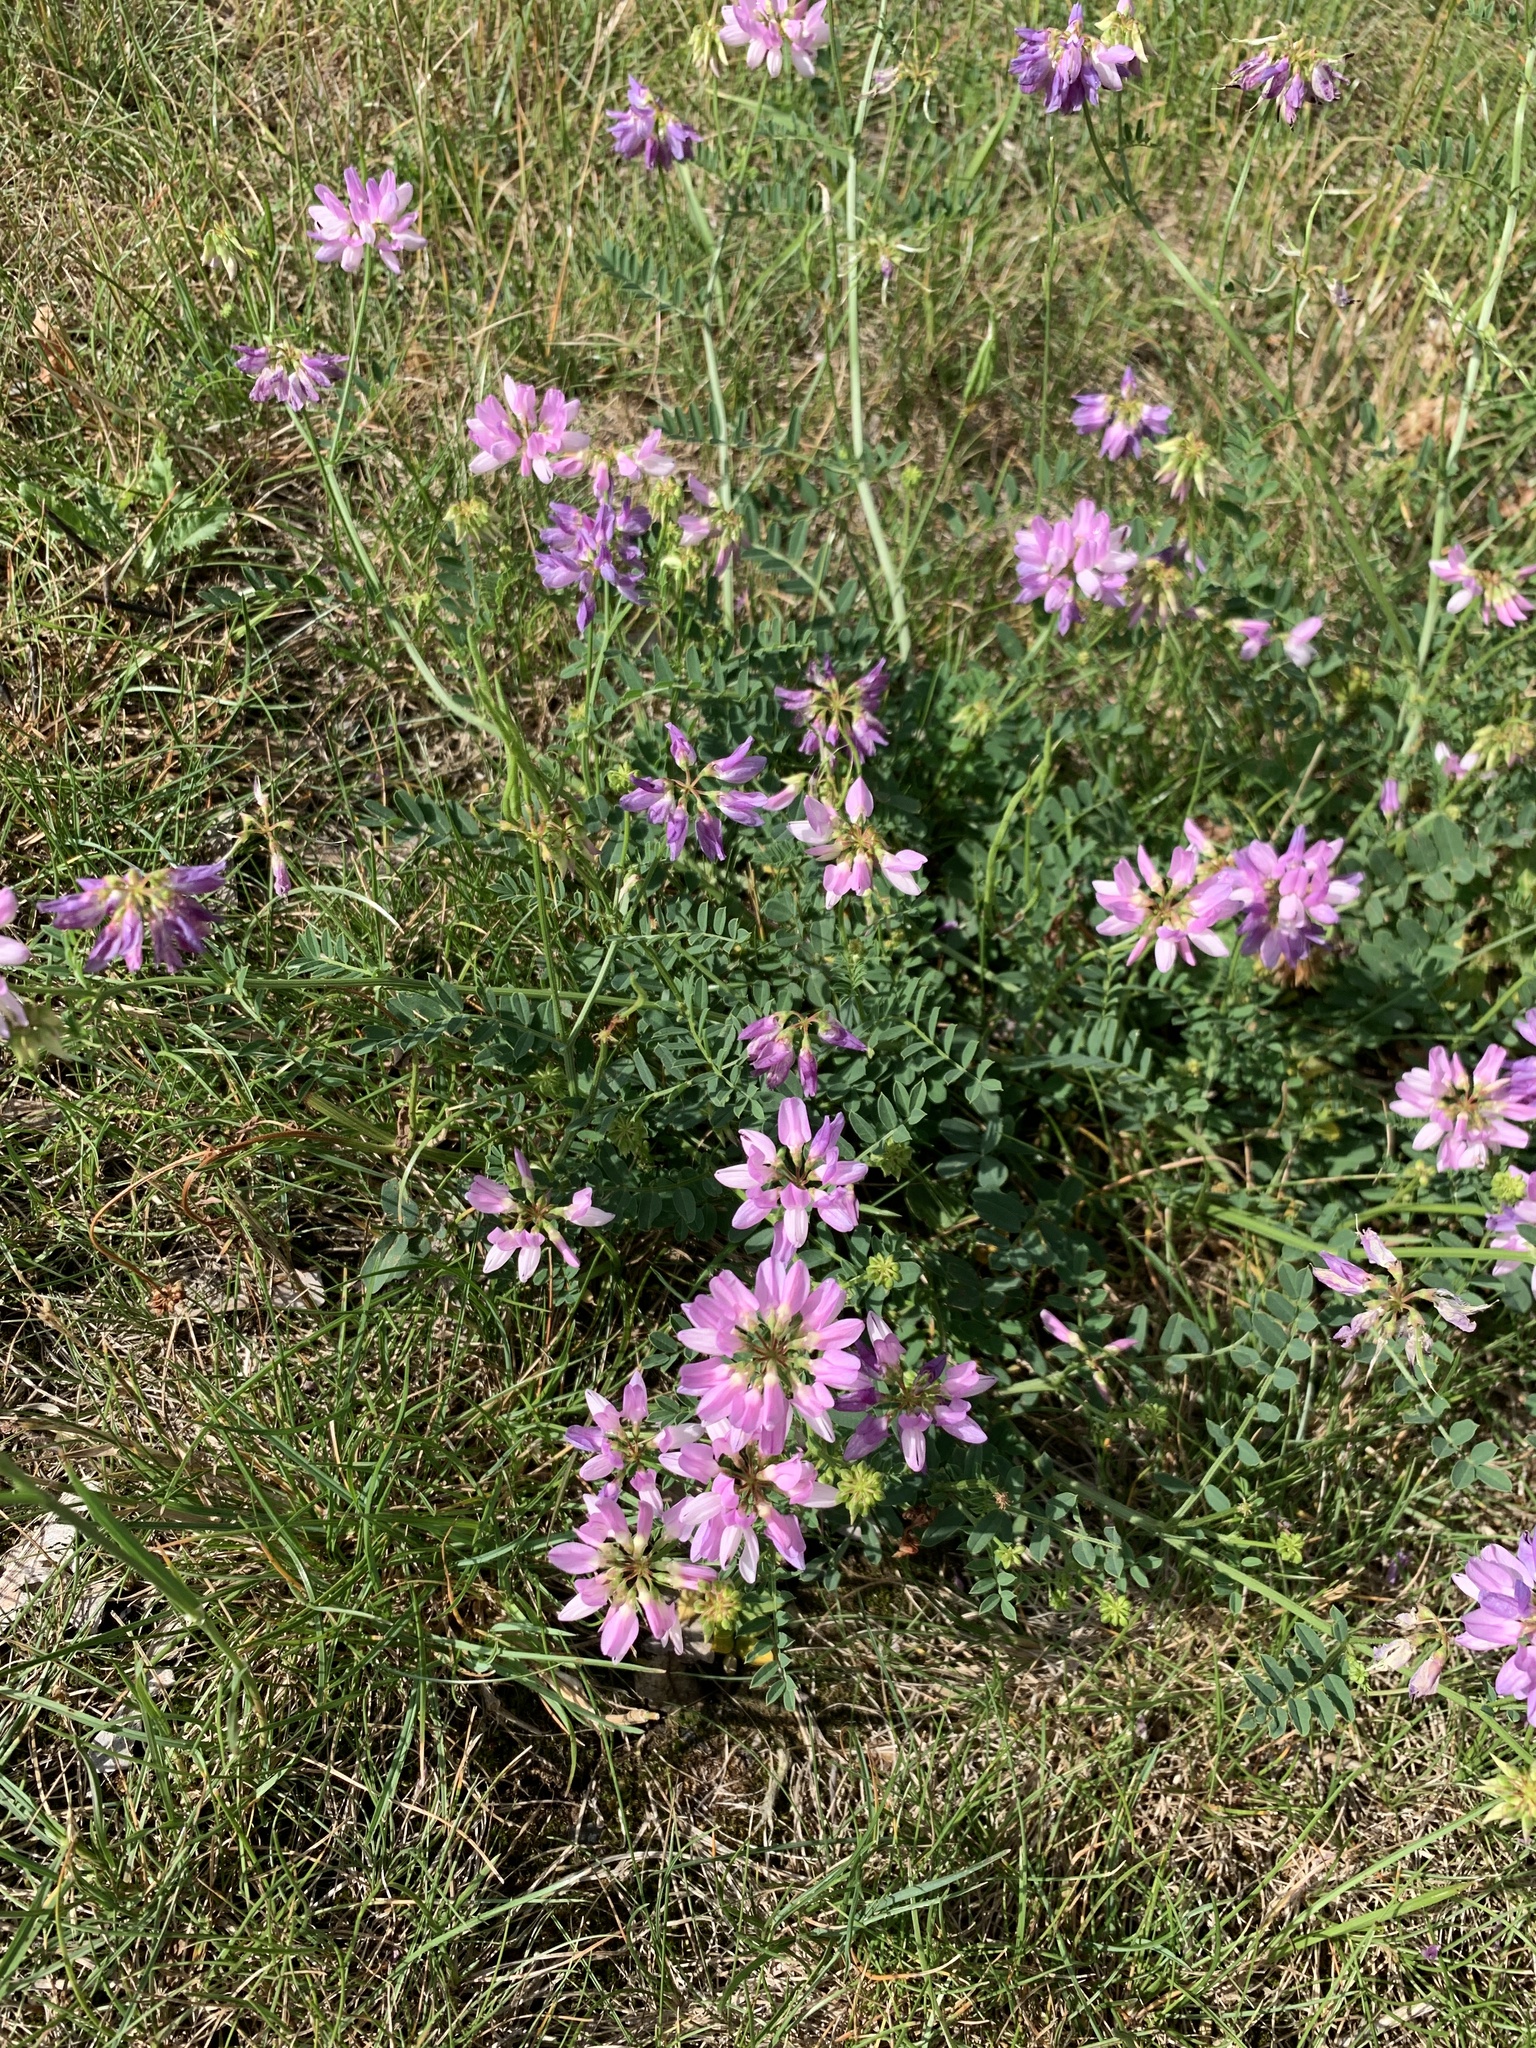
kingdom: Plantae
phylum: Tracheophyta
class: Magnoliopsida
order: Fabales
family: Fabaceae
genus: Coronilla
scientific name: Coronilla varia
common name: Crownvetch
